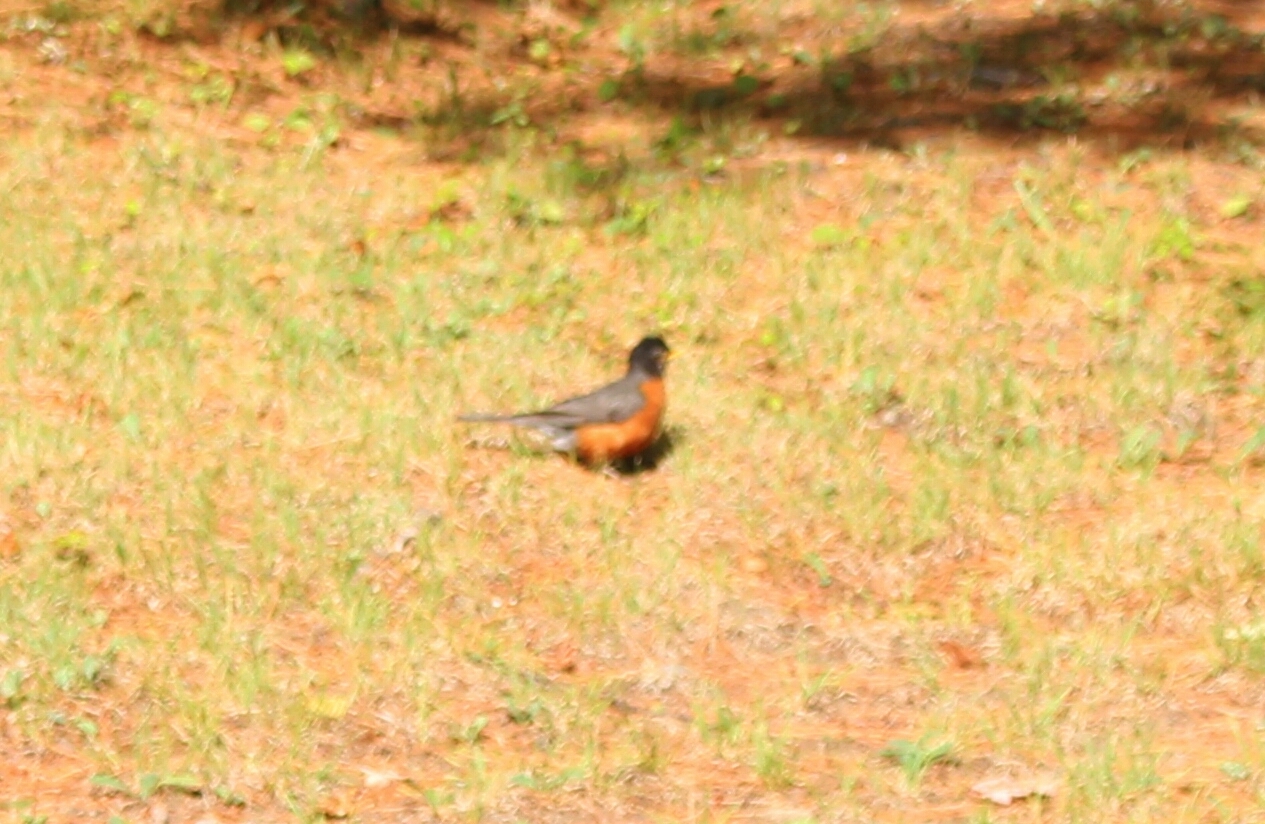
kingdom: Animalia
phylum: Chordata
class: Aves
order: Passeriformes
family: Turdidae
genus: Turdus
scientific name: Turdus migratorius
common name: American robin
